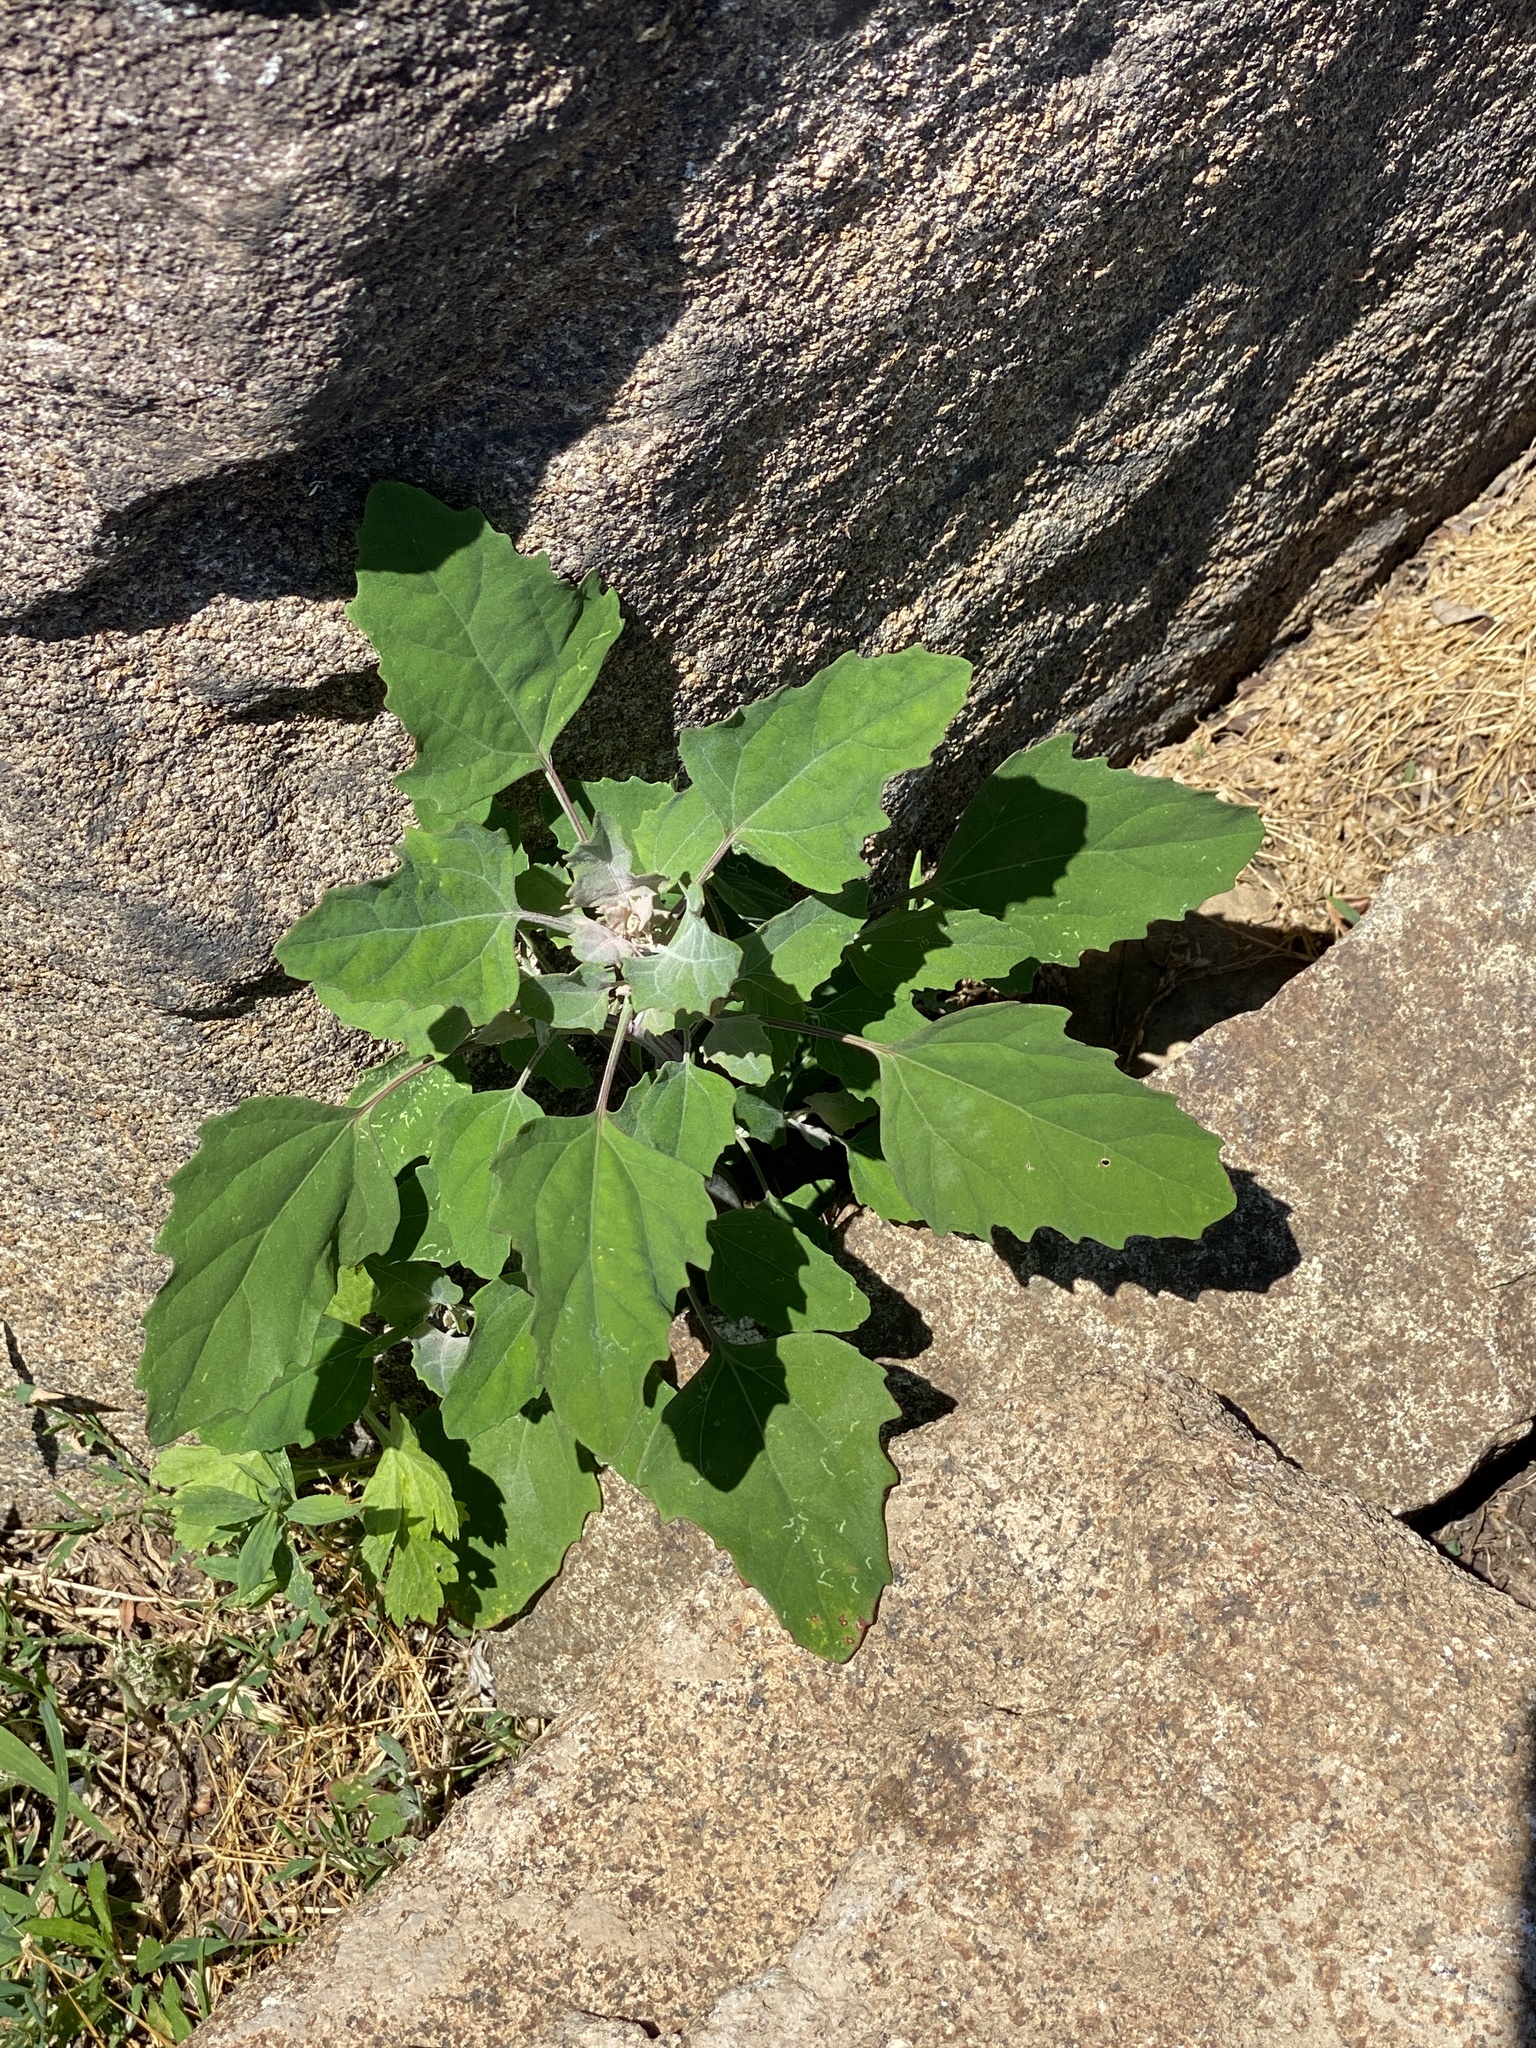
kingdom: Plantae
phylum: Tracheophyta
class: Magnoliopsida
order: Caryophyllales
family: Amaranthaceae
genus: Chenopodium
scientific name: Chenopodium album
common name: Fat-hen
